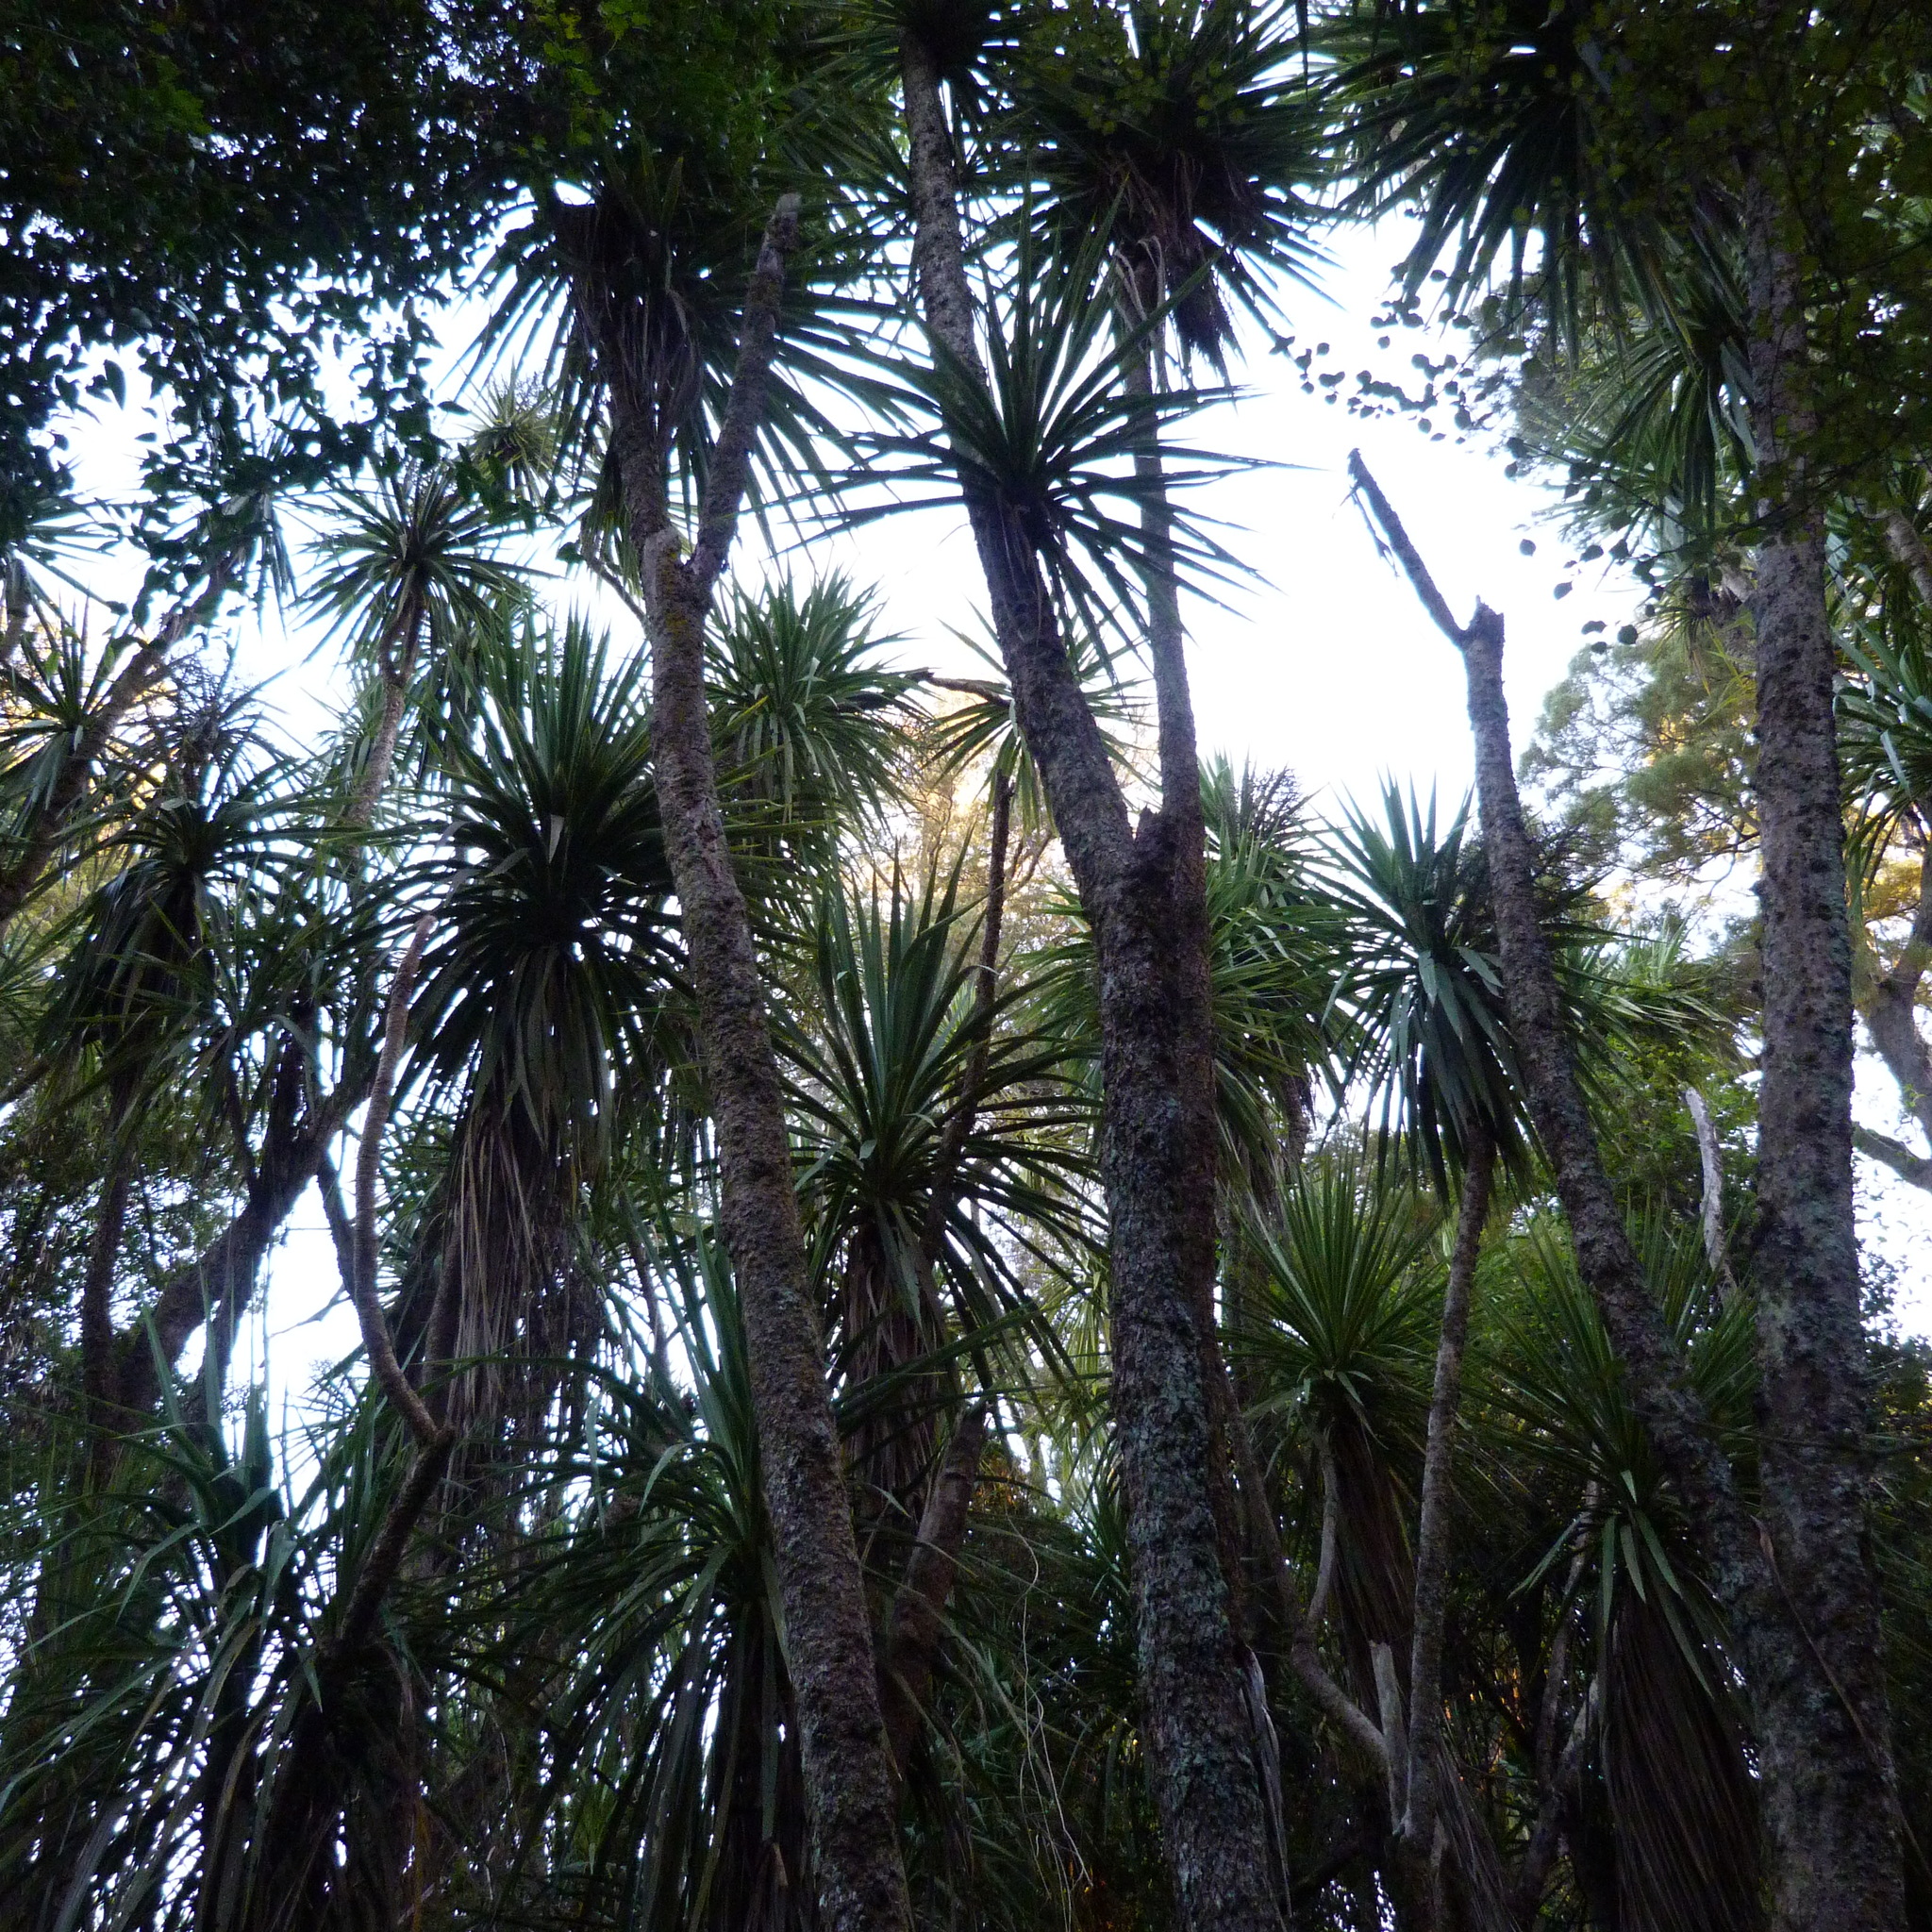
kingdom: Plantae
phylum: Tracheophyta
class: Liliopsida
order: Asparagales
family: Asparagaceae
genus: Cordyline
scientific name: Cordyline australis
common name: Cabbage-palm
